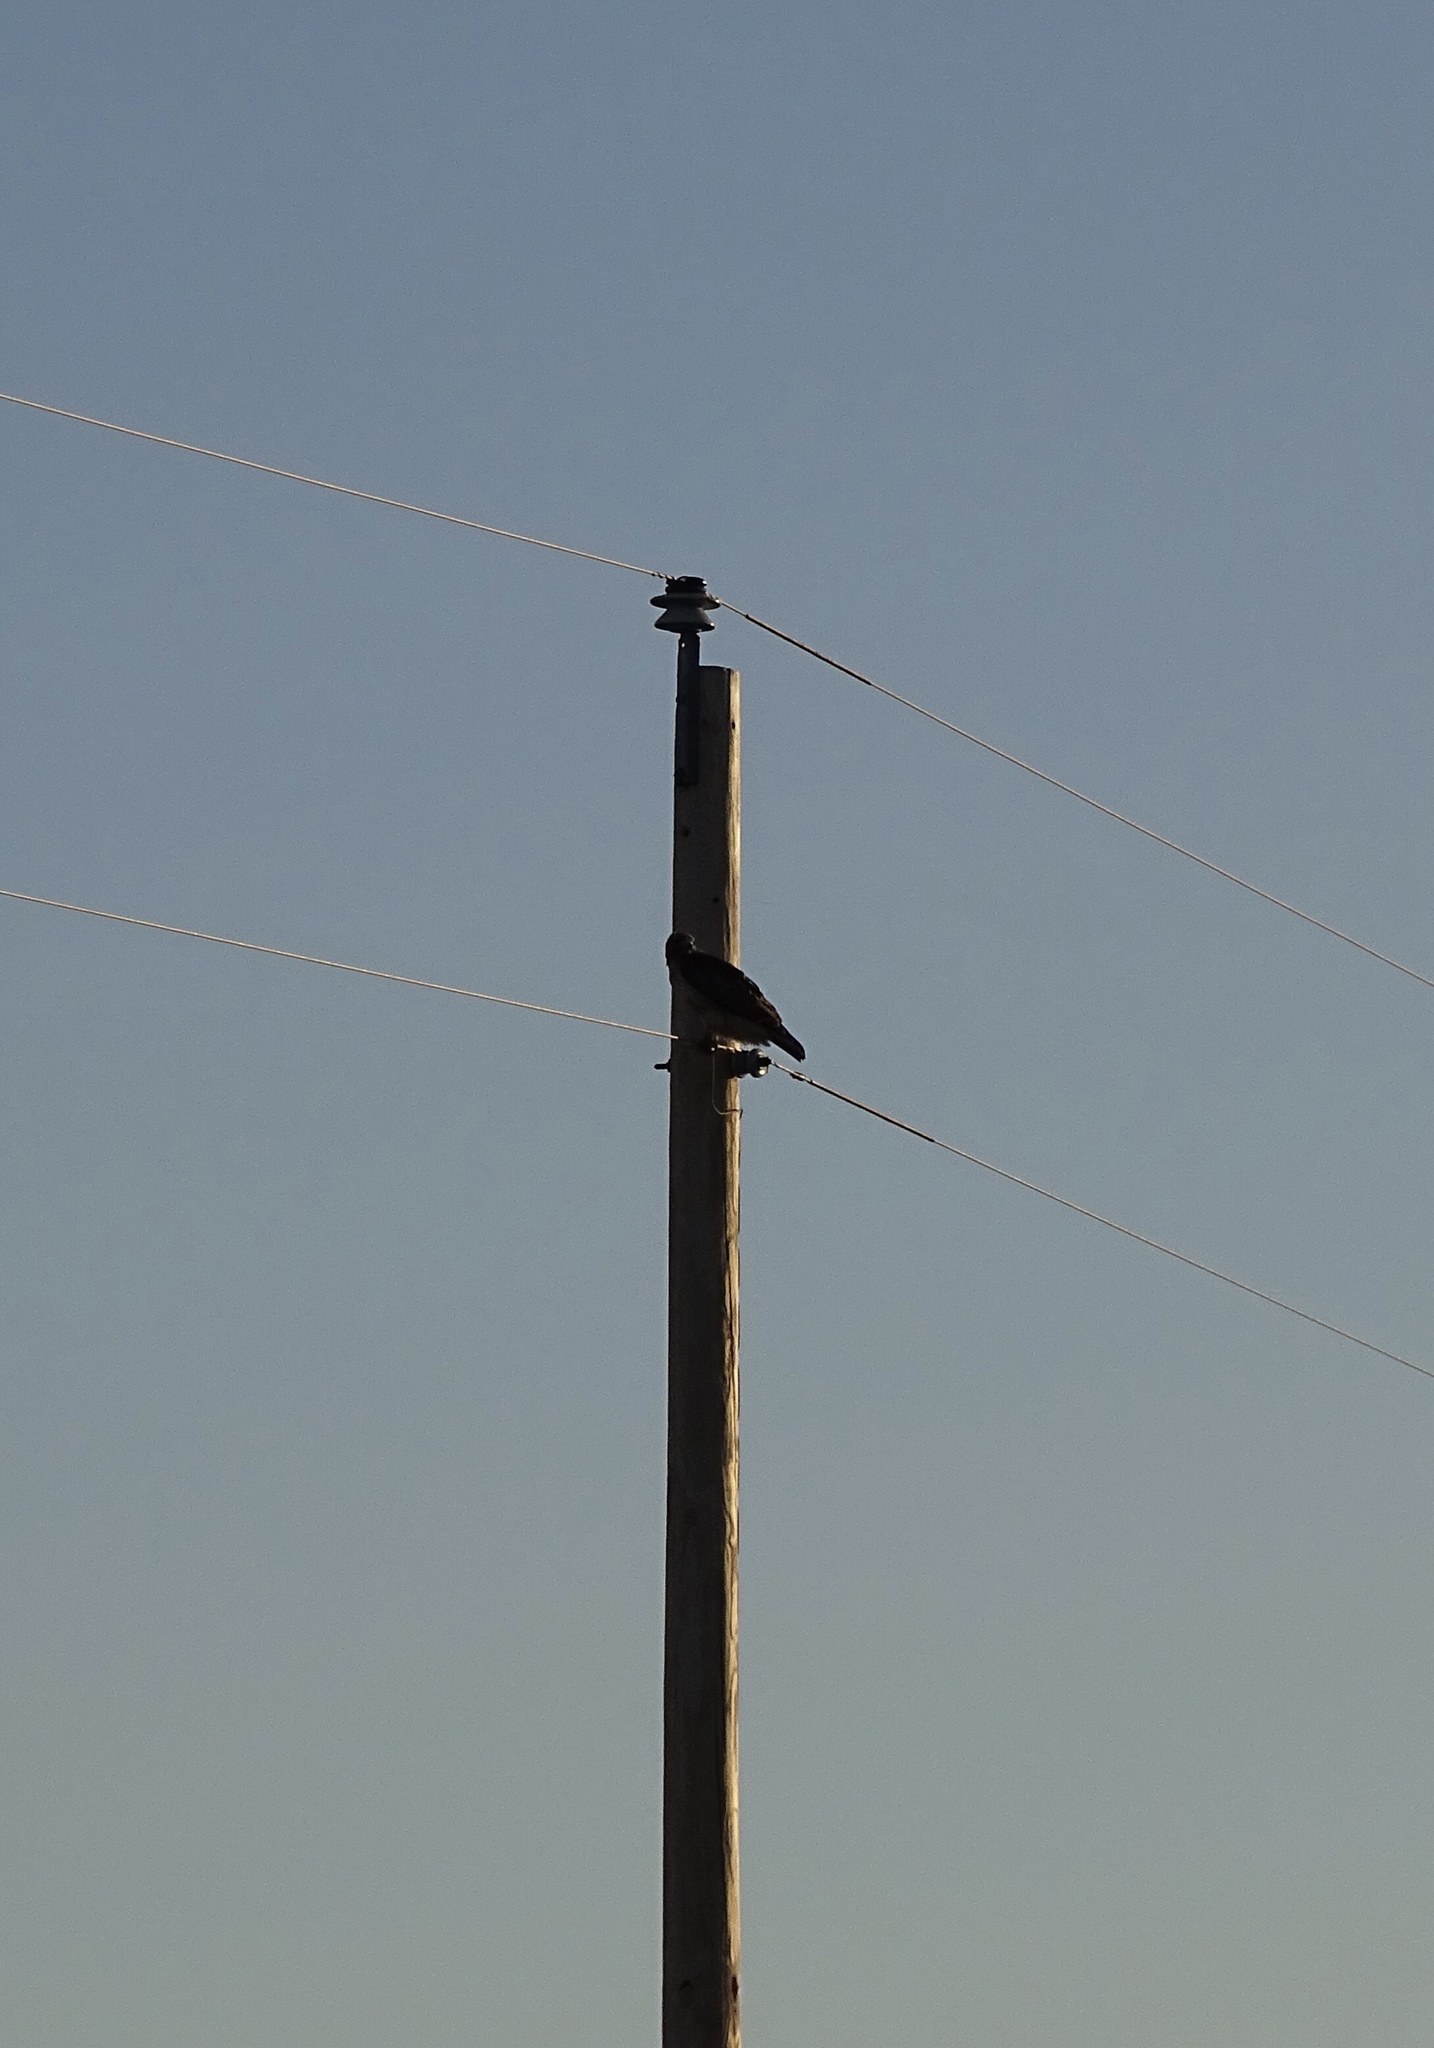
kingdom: Animalia
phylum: Chordata
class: Aves
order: Accipitriformes
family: Accipitridae
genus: Buteo
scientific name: Buteo jamaicensis
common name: Red-tailed hawk
